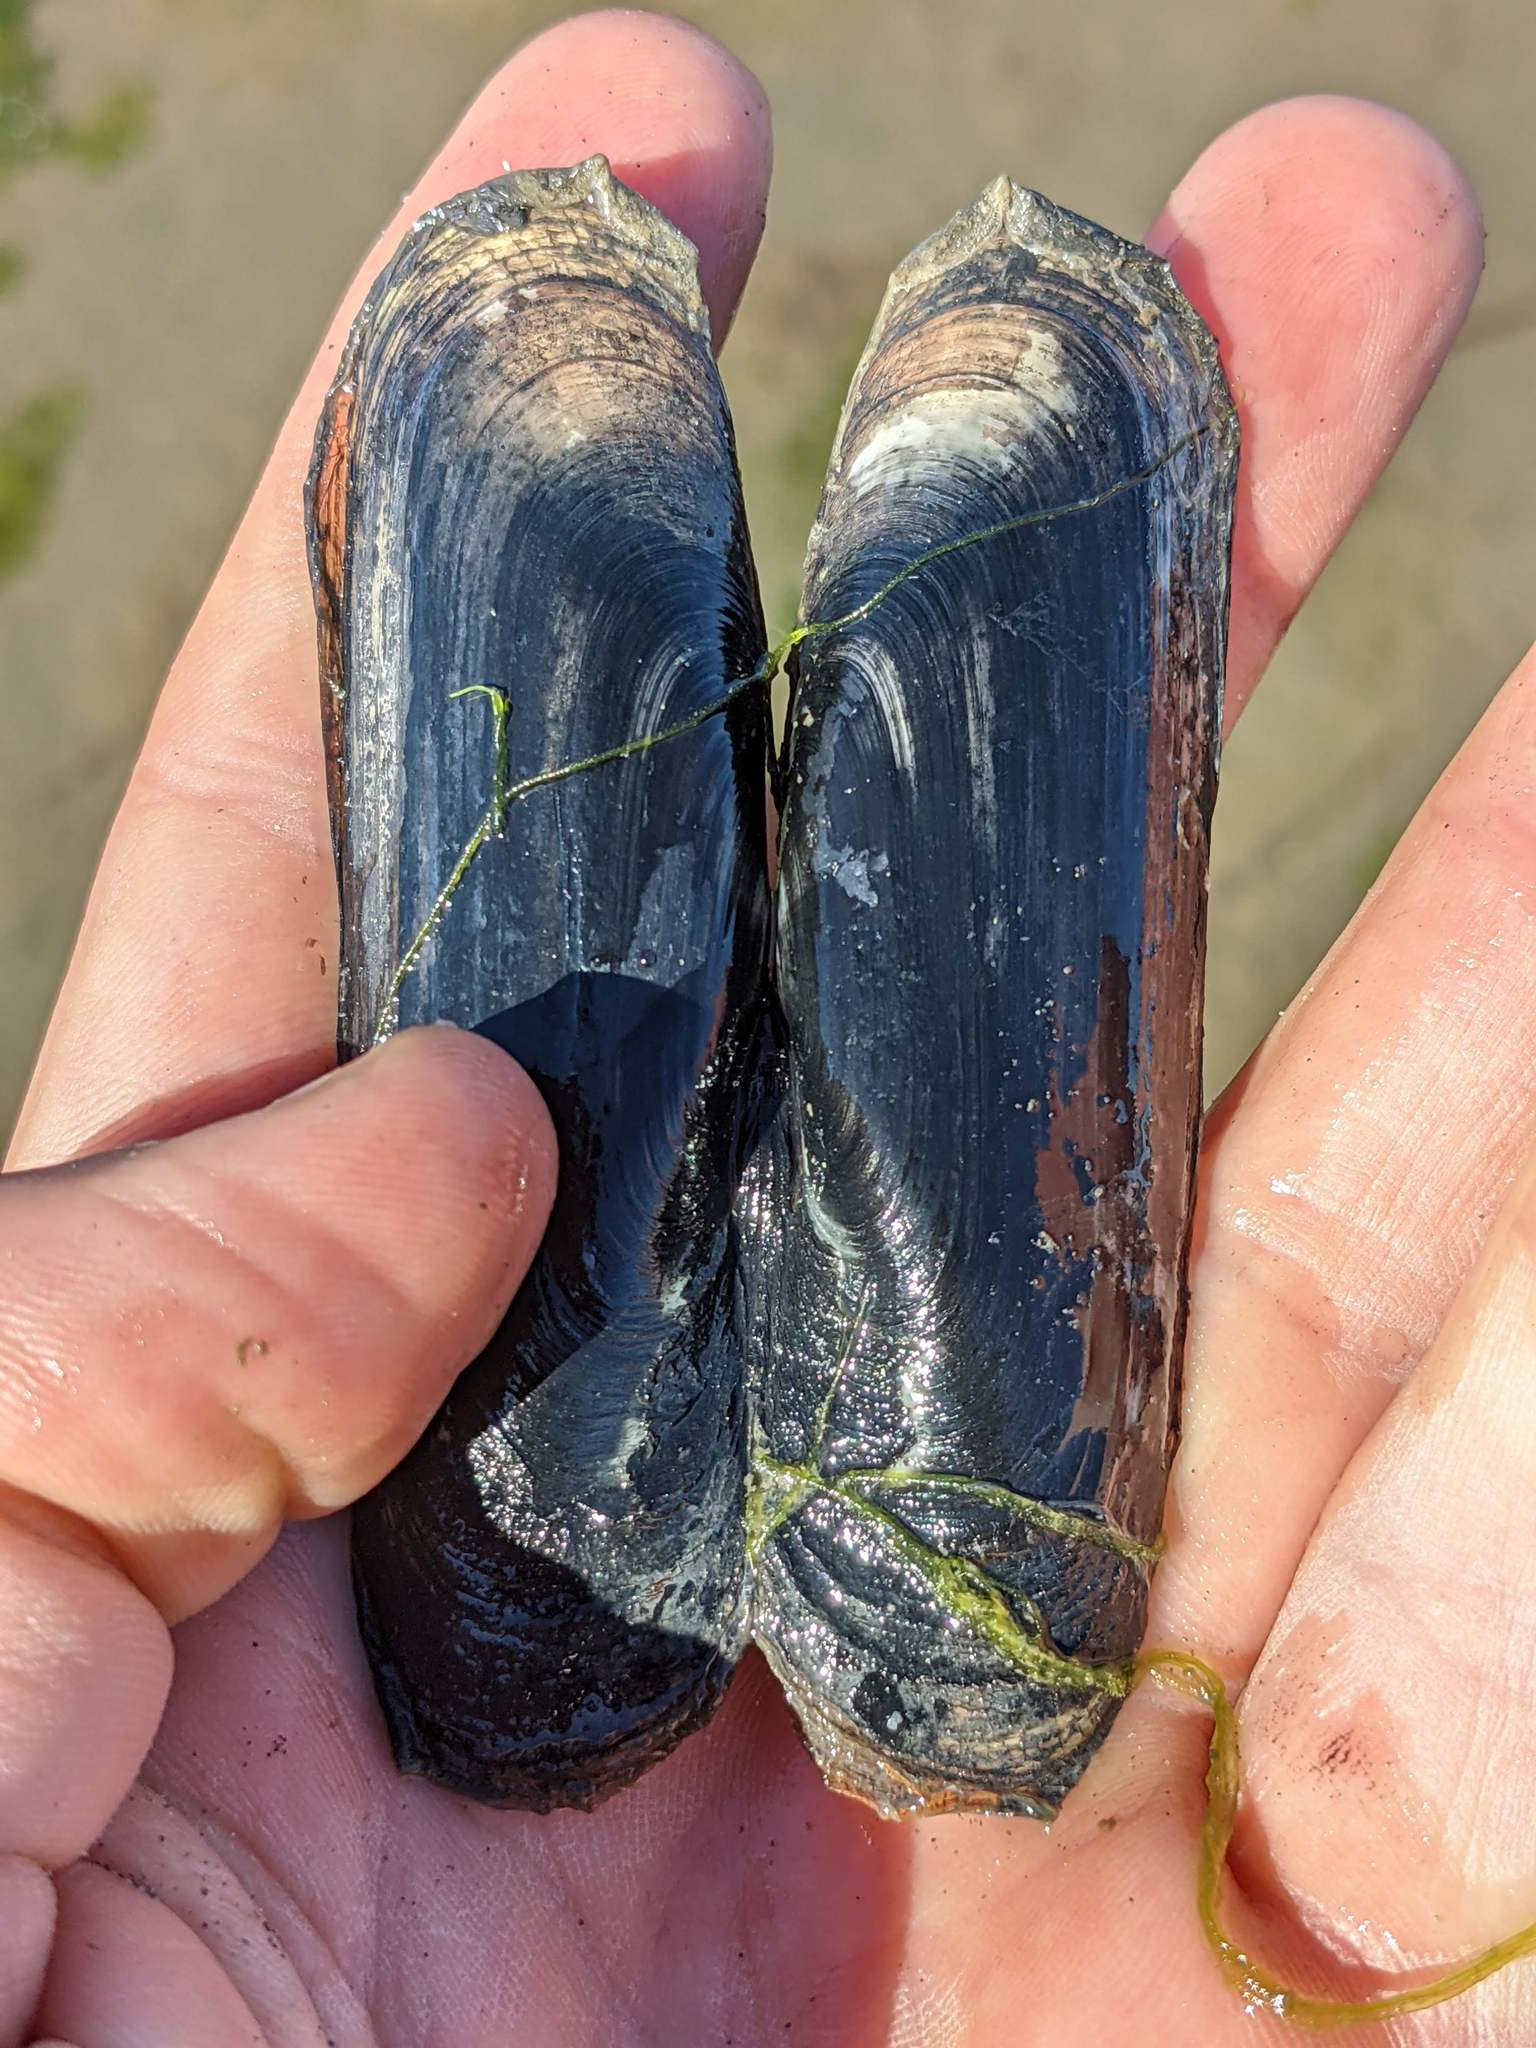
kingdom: Animalia
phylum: Mollusca
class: Bivalvia
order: Cardiida
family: Solecurtidae
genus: Tagelus
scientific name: Tagelus californianus
